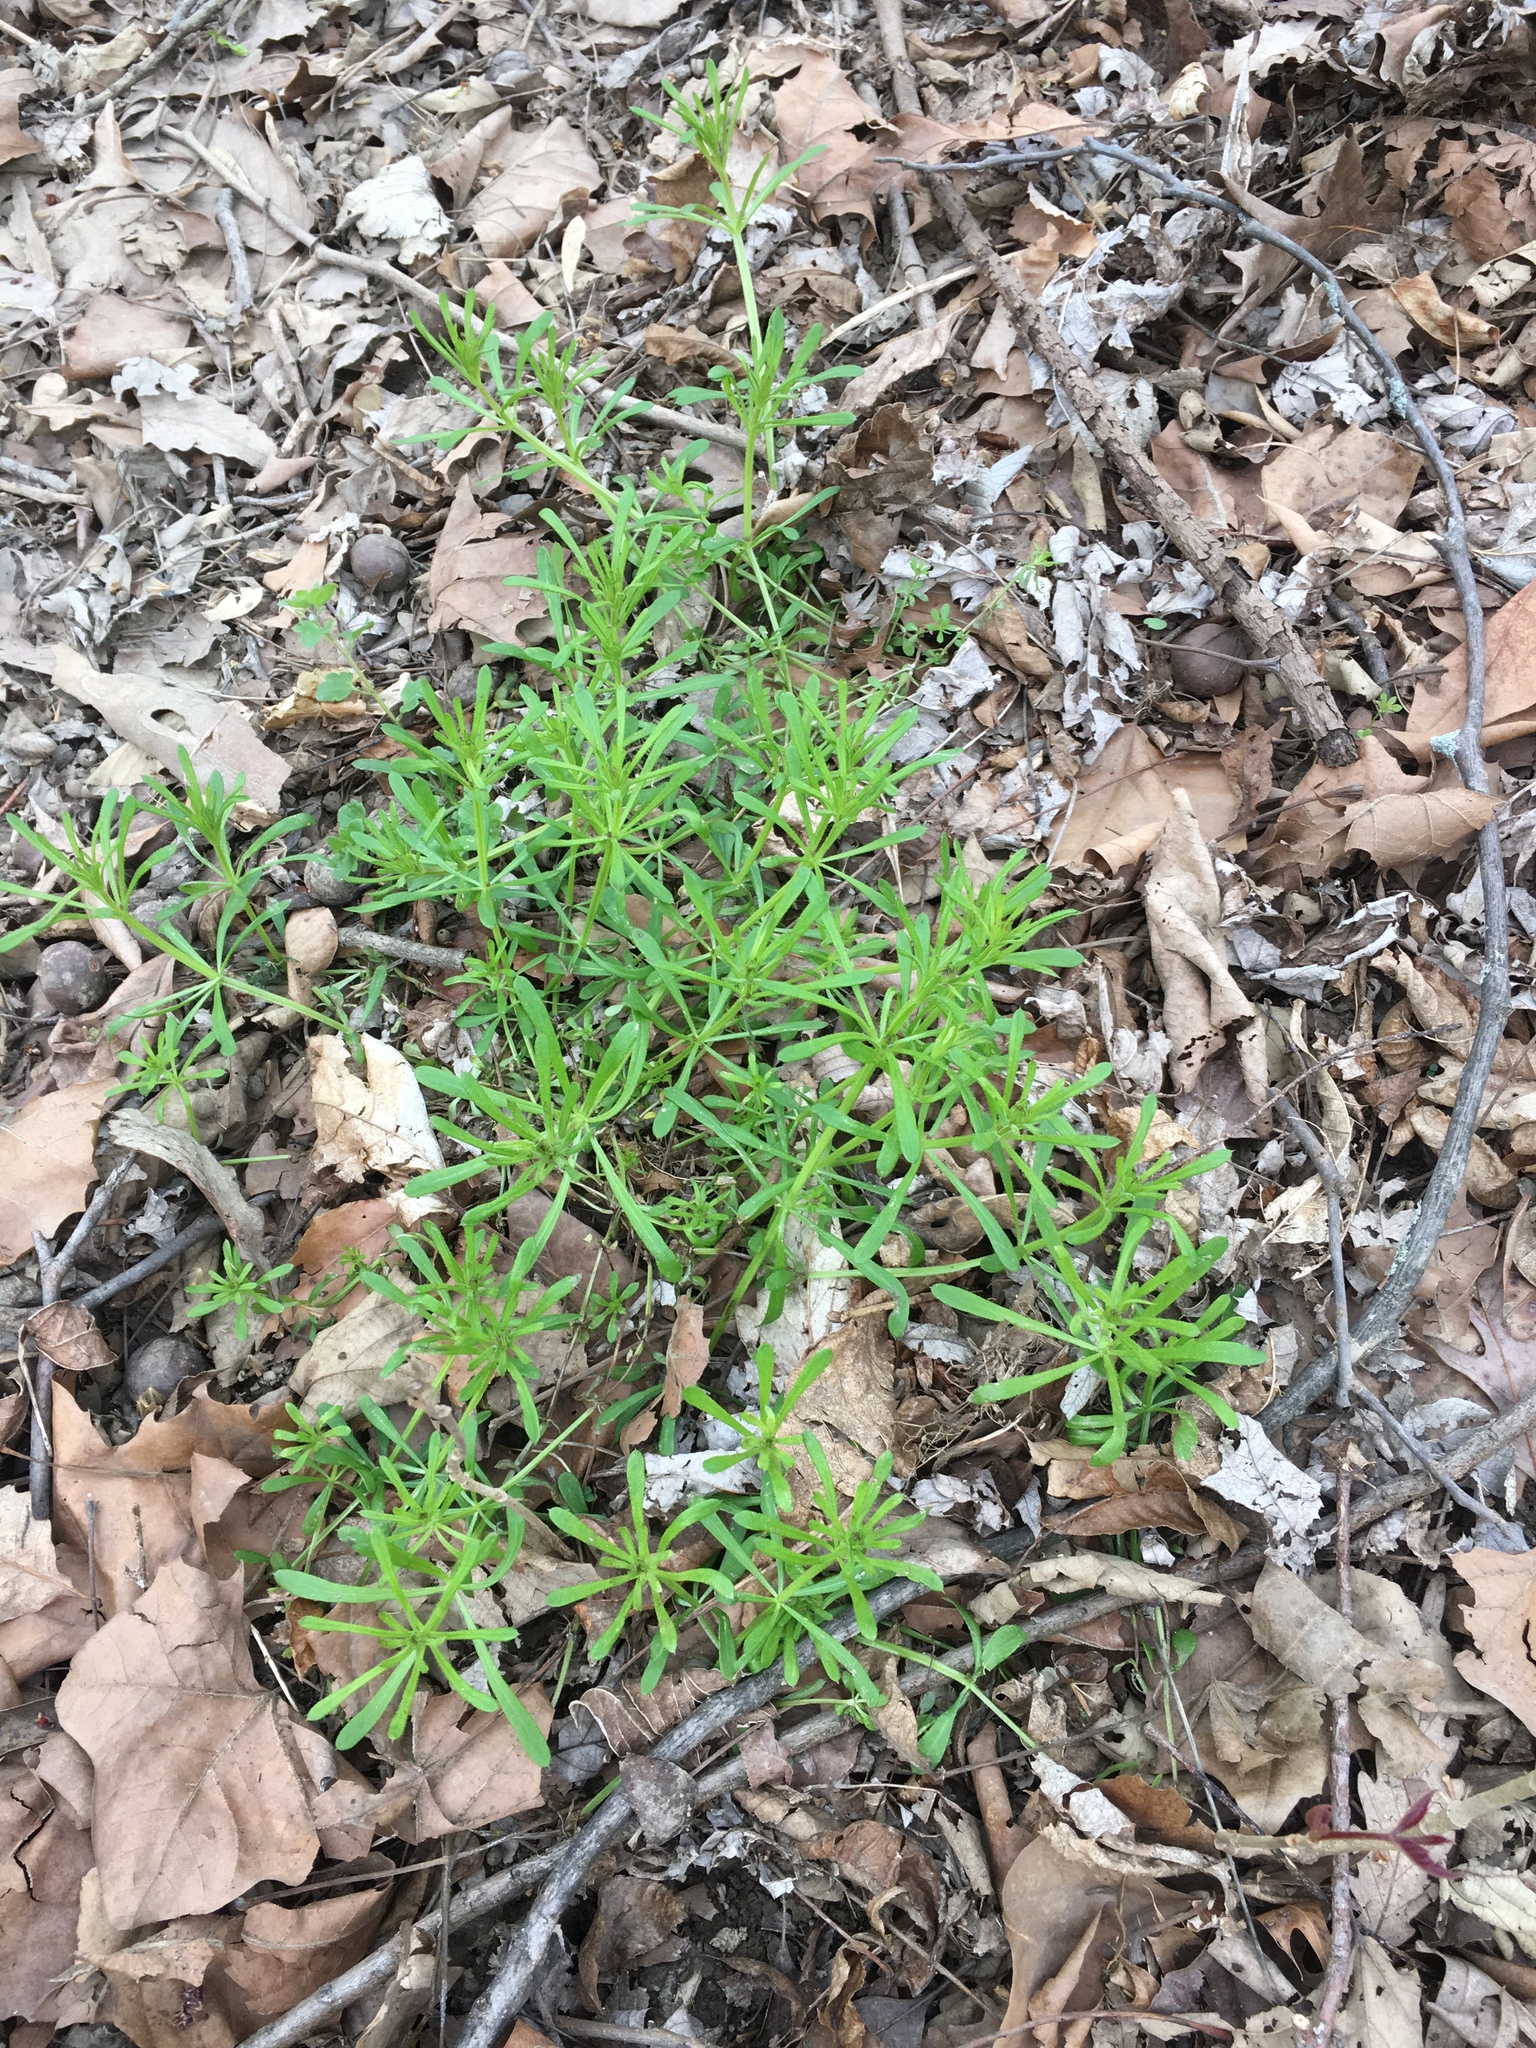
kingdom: Plantae
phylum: Tracheophyta
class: Magnoliopsida
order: Gentianales
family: Rubiaceae
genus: Galium
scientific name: Galium aparine
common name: Cleavers
